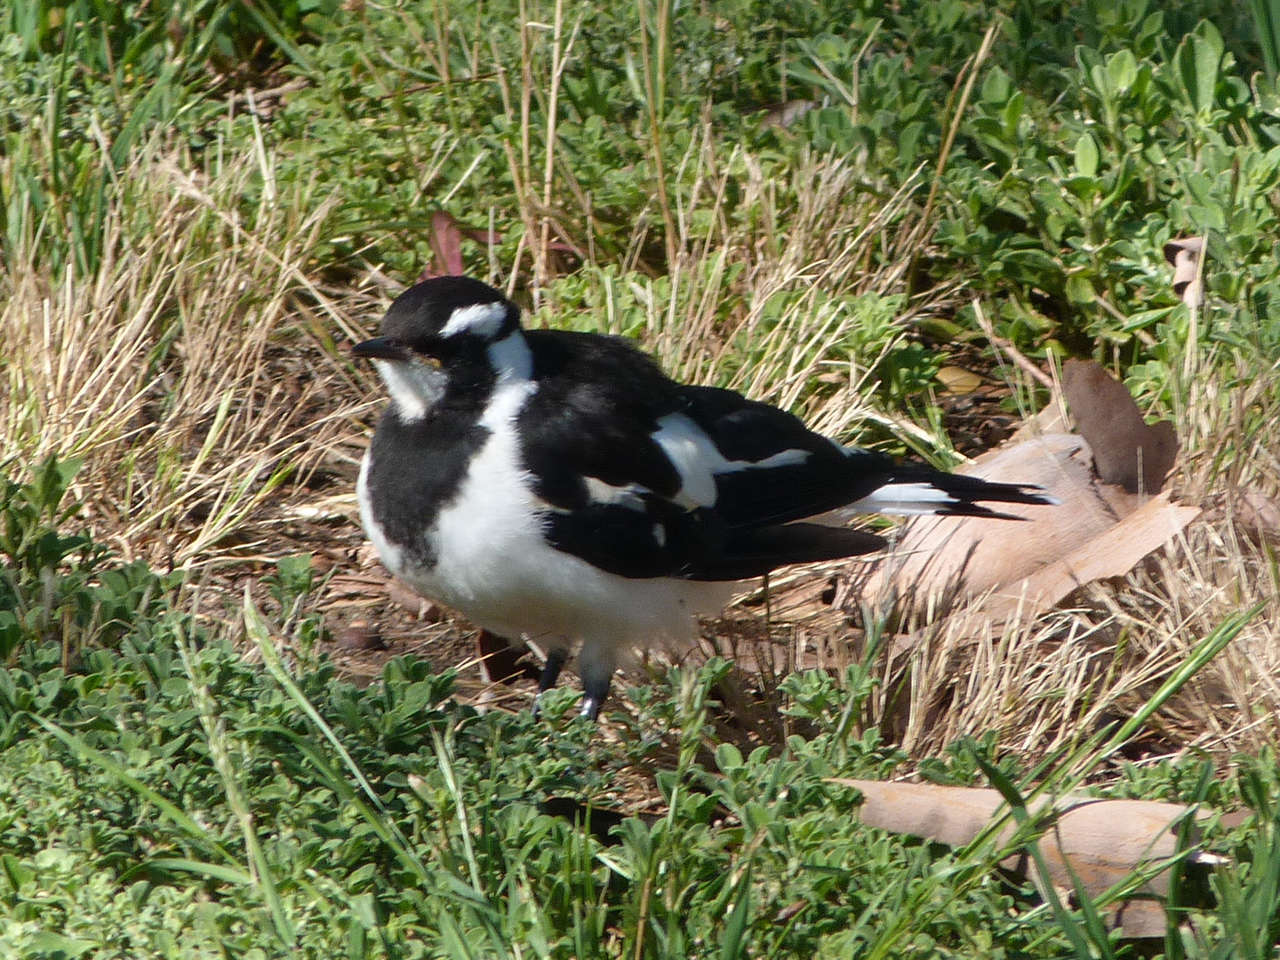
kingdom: Animalia
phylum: Chordata
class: Aves
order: Passeriformes
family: Monarchidae
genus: Grallina
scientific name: Grallina cyanoleuca
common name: Magpie-lark
